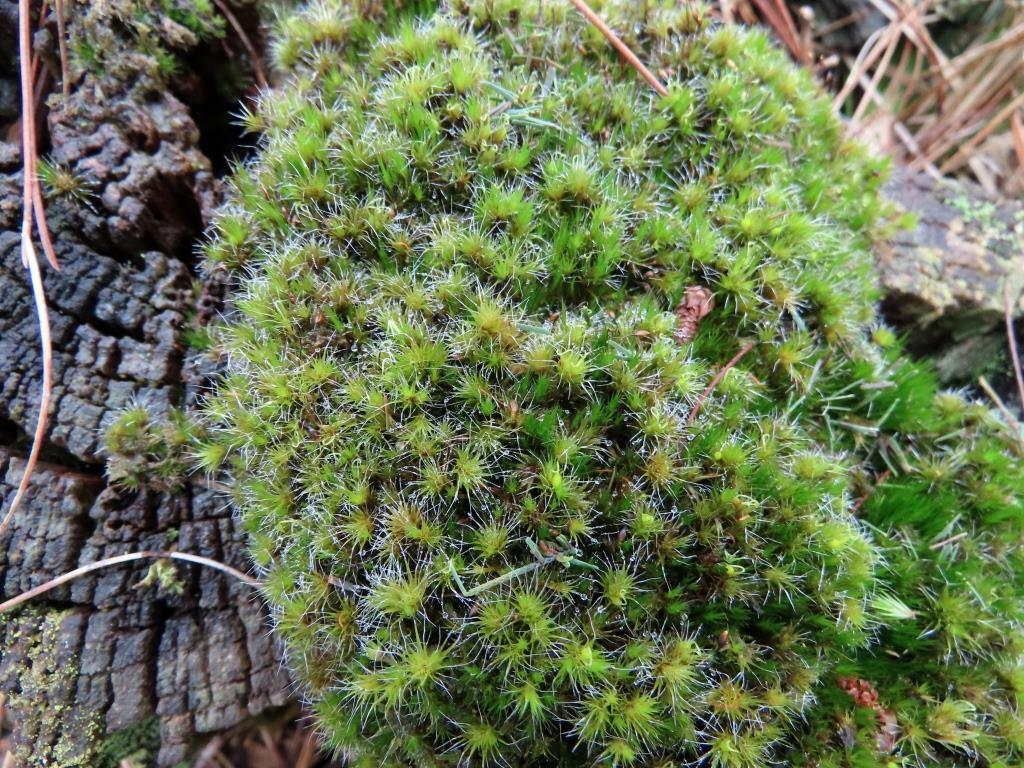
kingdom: Plantae
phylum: Bryophyta
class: Bryopsida
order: Dicranales
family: Leucobryaceae
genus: Campylopus
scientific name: Campylopus introflexus
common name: Heath star moss
